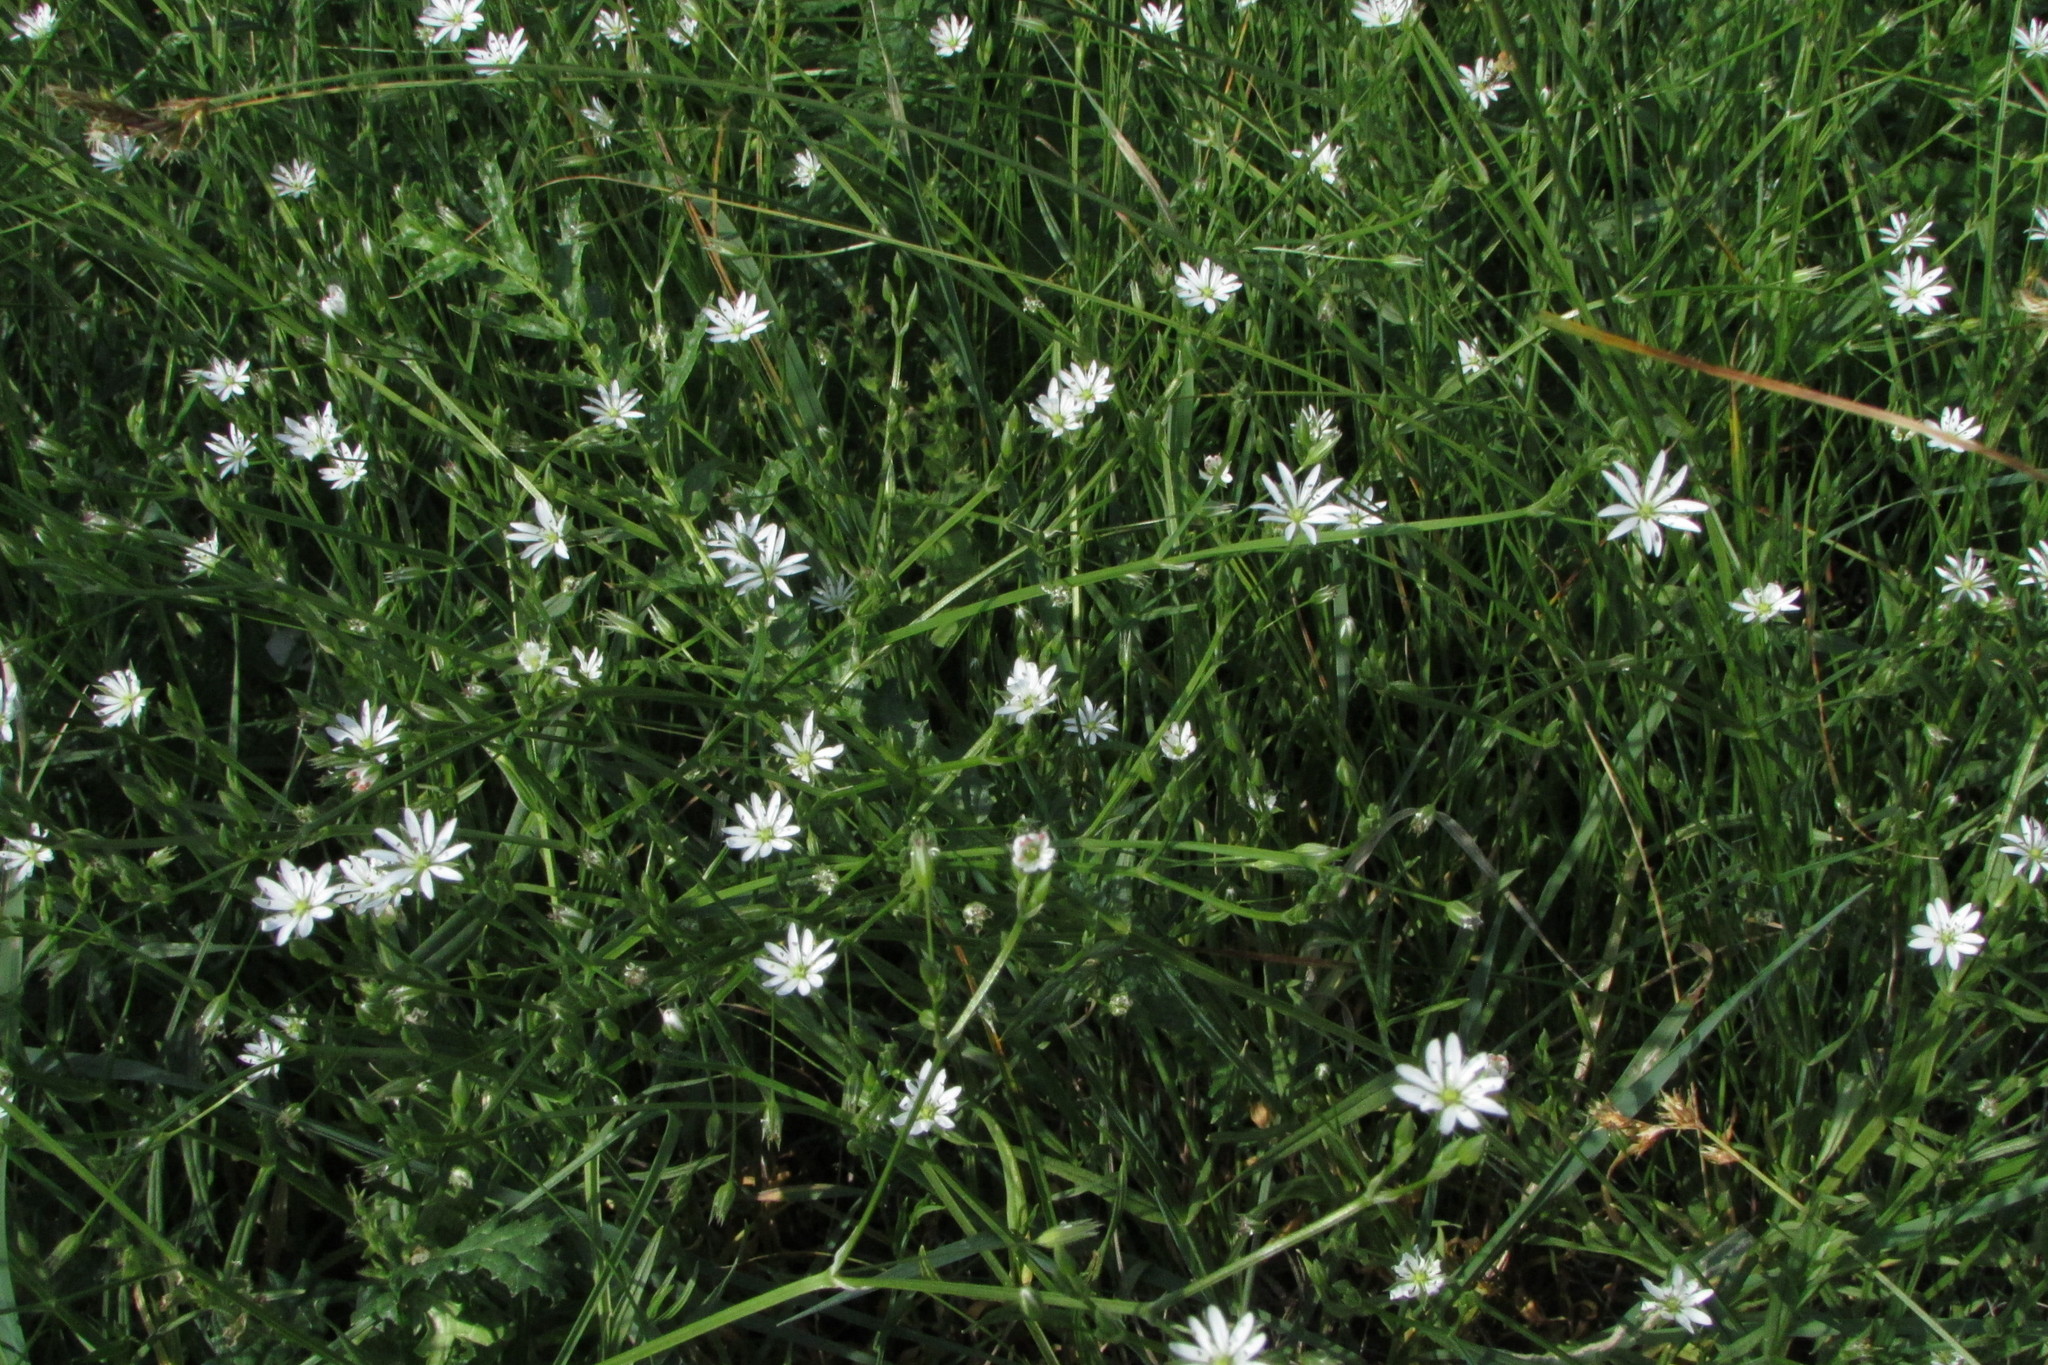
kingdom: Plantae
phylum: Tracheophyta
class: Magnoliopsida
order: Caryophyllales
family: Caryophyllaceae
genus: Stellaria
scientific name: Stellaria graminea
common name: Grass-like starwort
